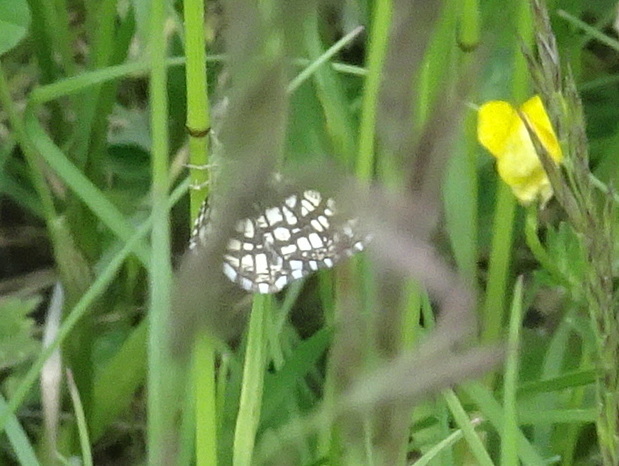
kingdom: Animalia
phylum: Arthropoda
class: Insecta
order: Lepidoptera
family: Geometridae
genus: Chiasmia
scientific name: Chiasmia clathrata
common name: Latticed heath
